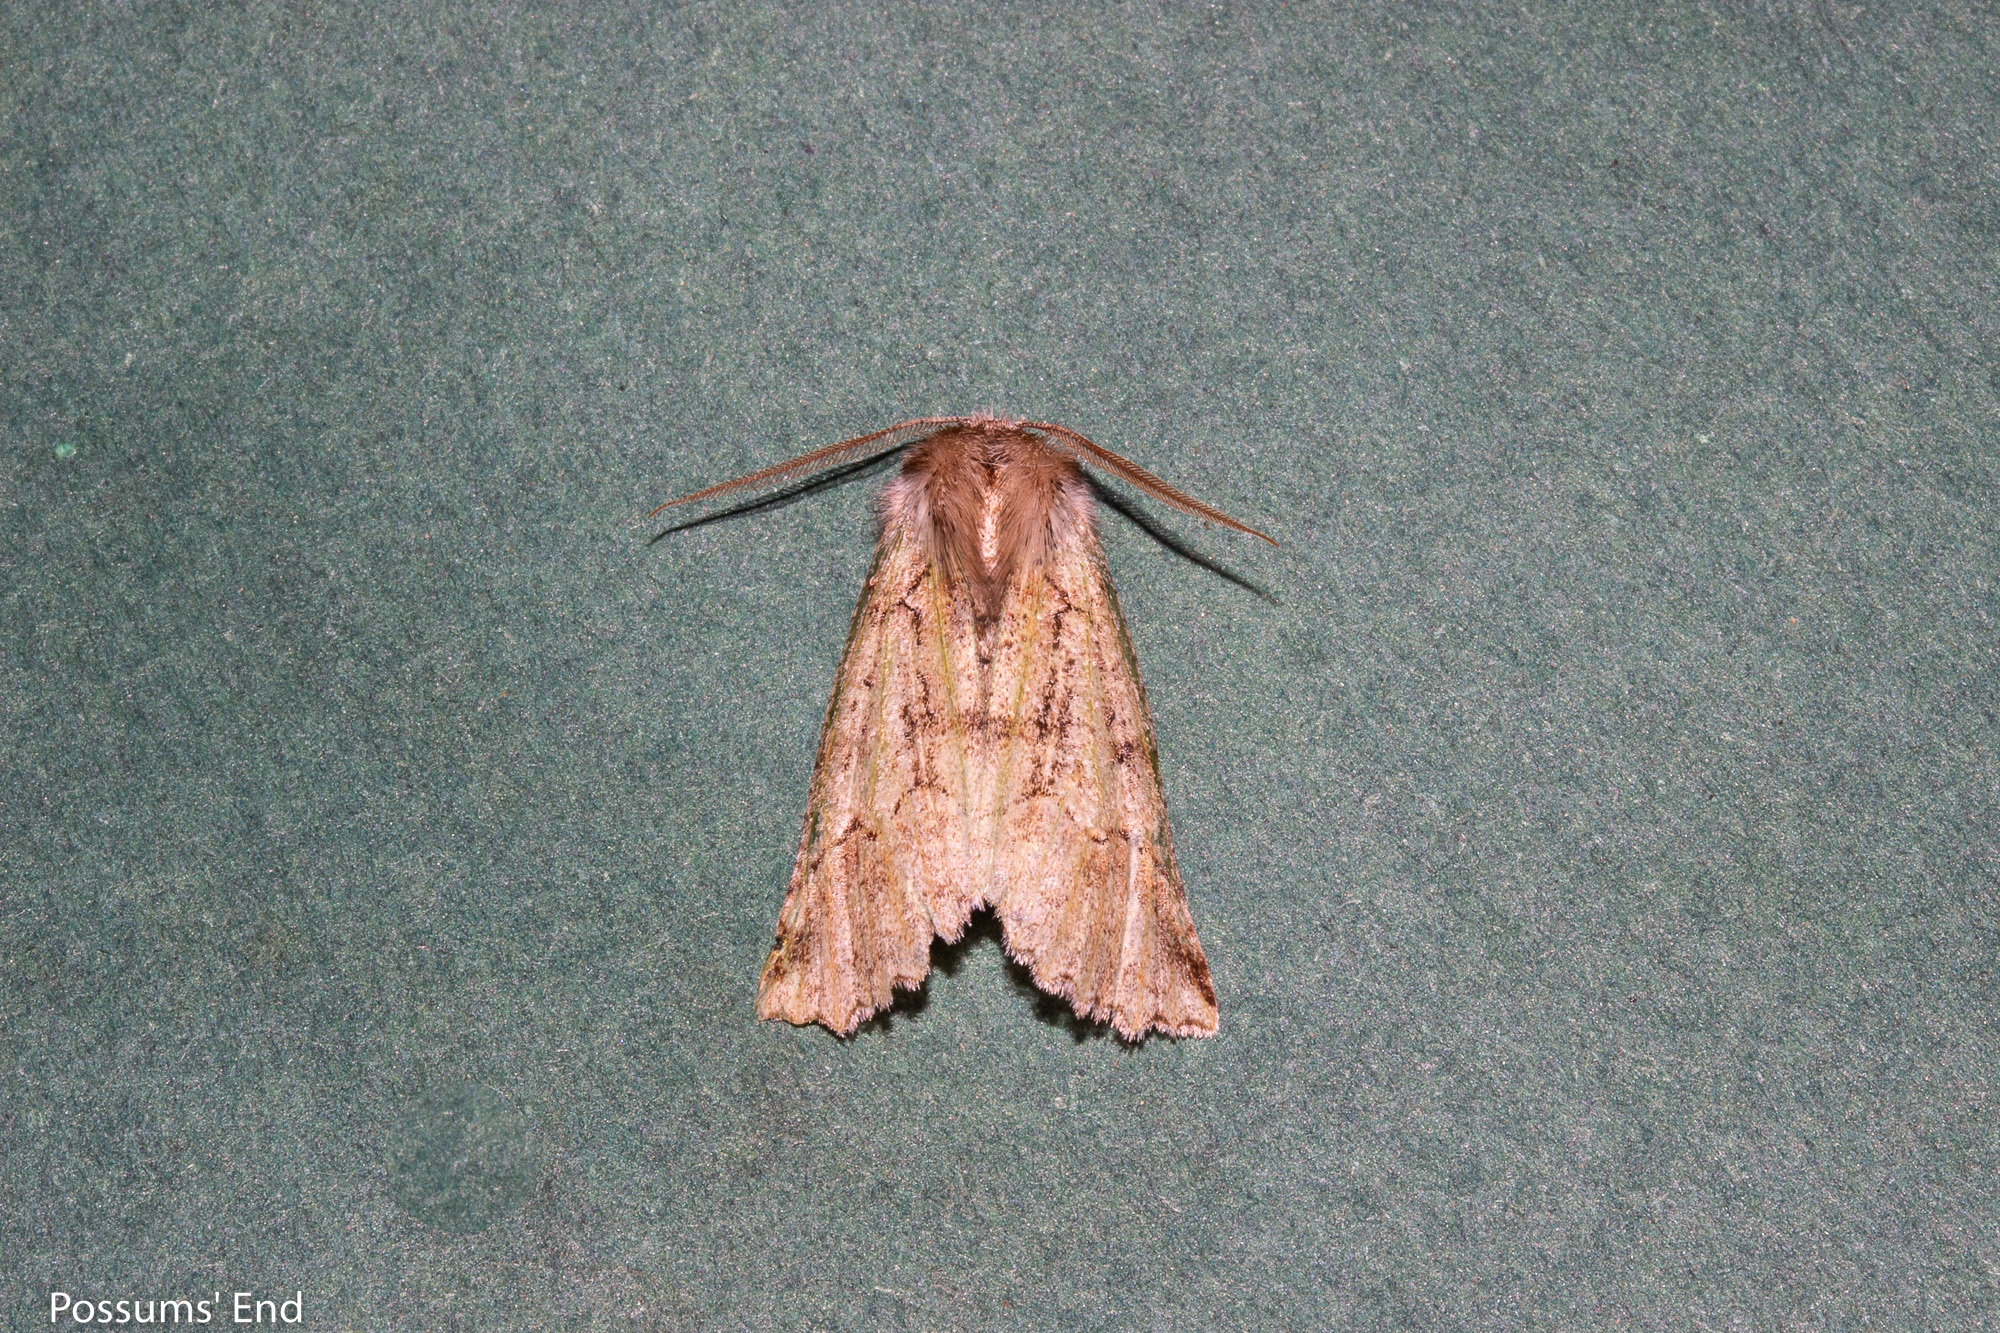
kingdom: Animalia
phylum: Arthropoda
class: Insecta
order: Lepidoptera
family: Geometridae
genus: Declana
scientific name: Declana floccosa
